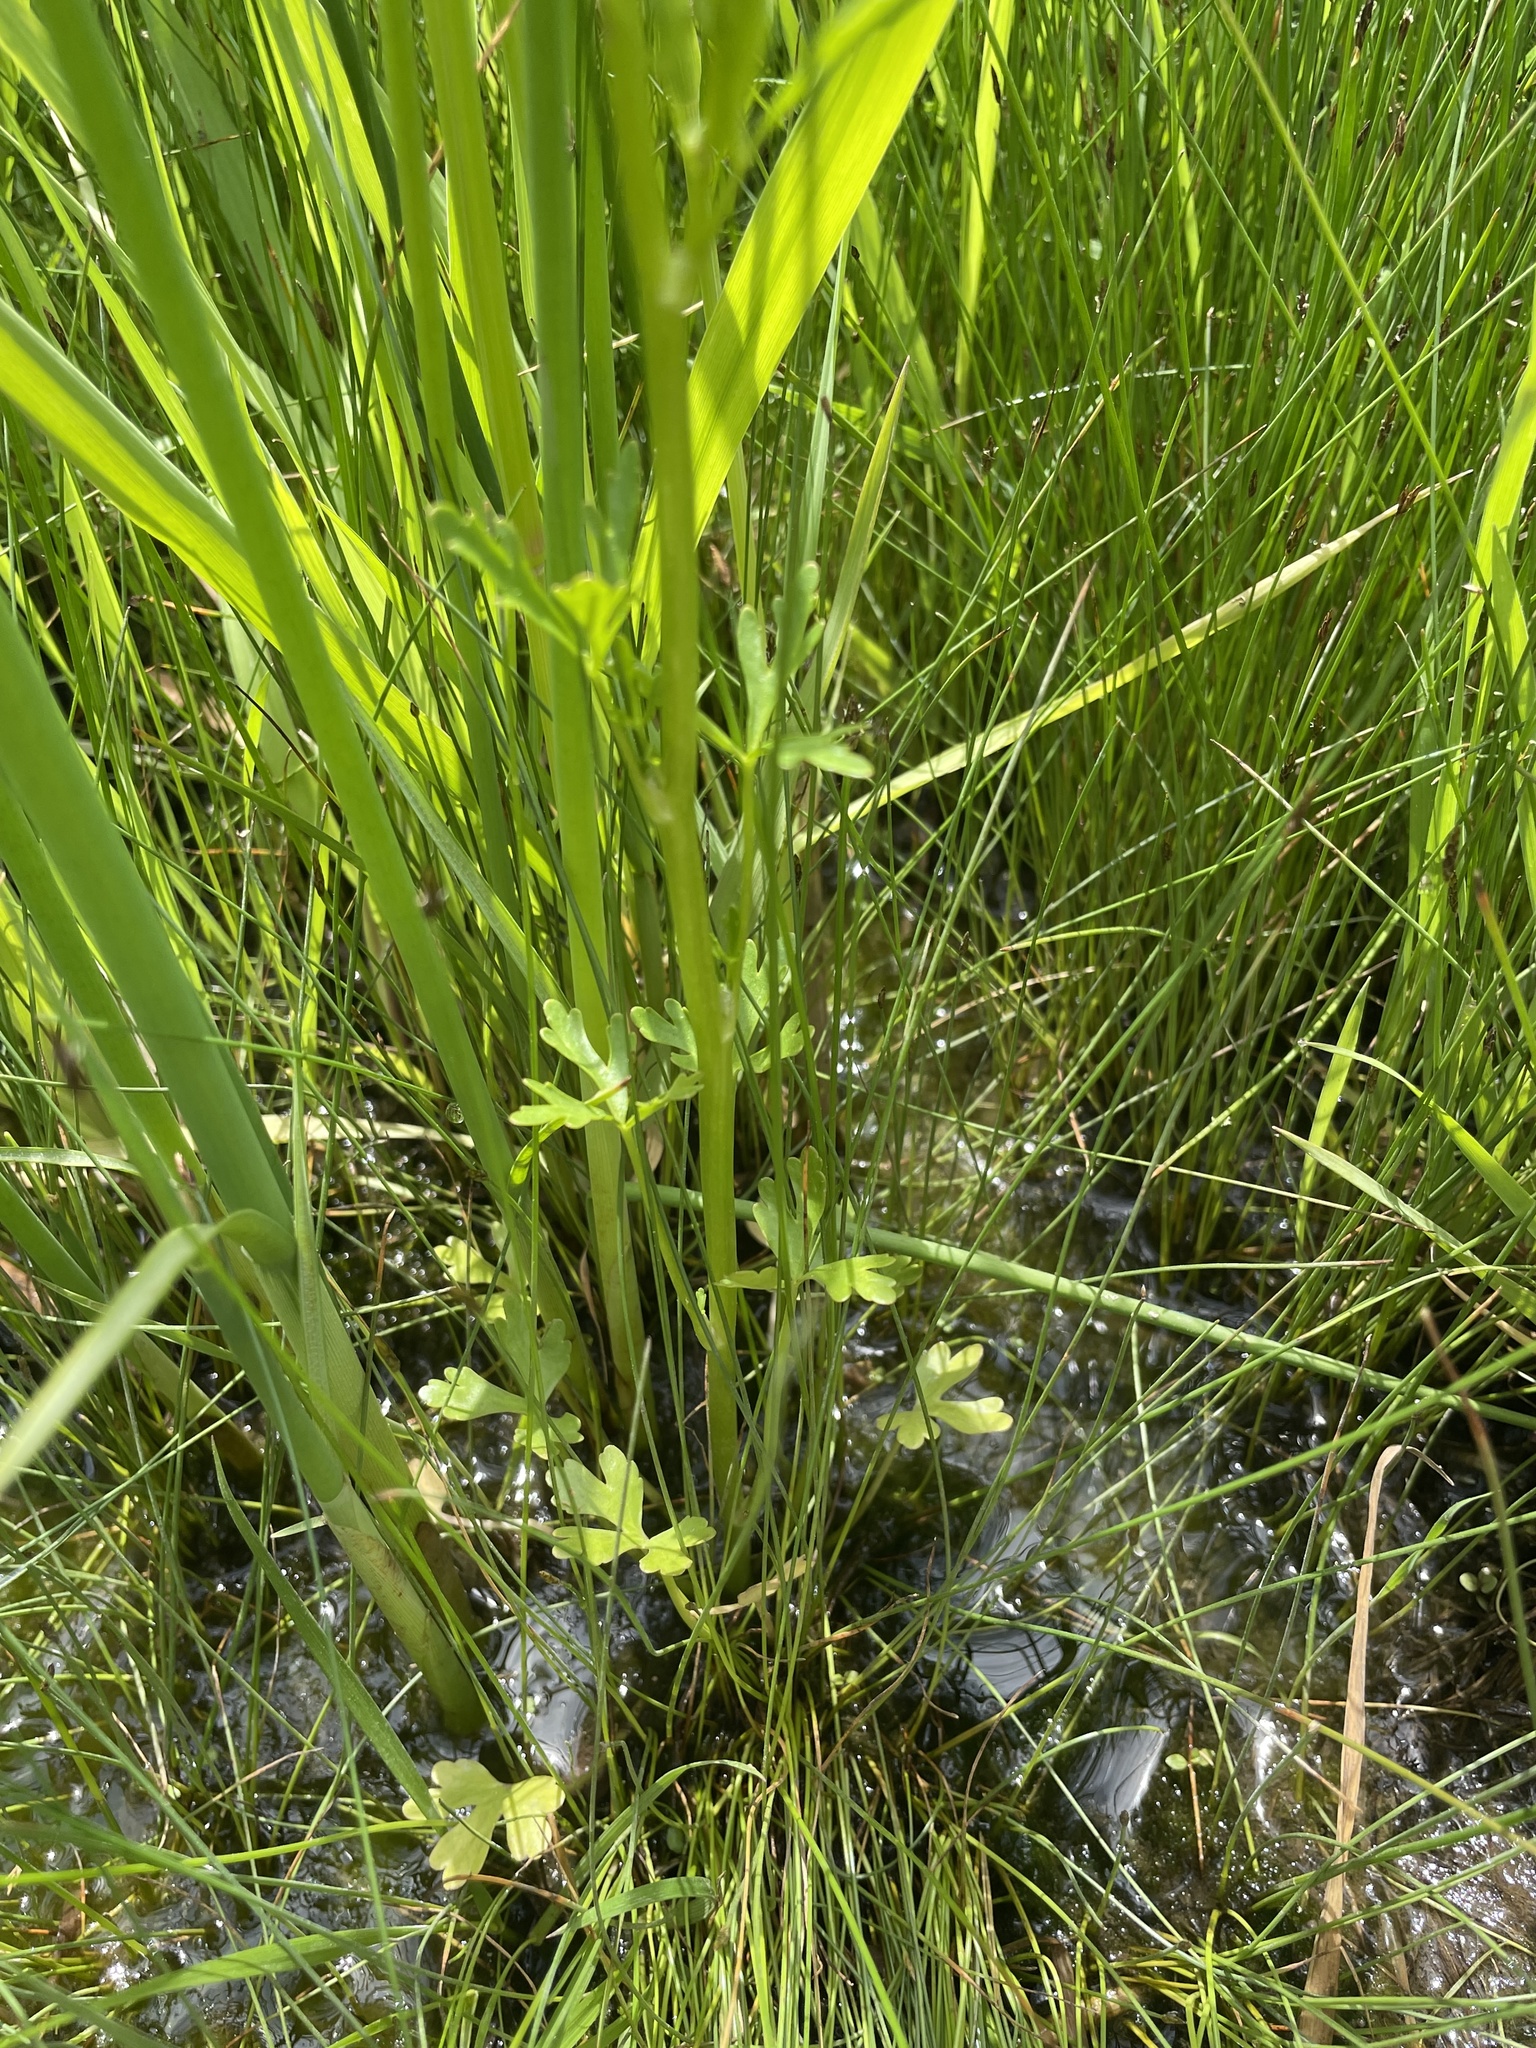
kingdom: Plantae
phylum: Tracheophyta
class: Magnoliopsida
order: Ranunculales
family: Ranunculaceae
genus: Ranunculus
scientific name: Ranunculus sceleratus
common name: Celery-leaved buttercup
